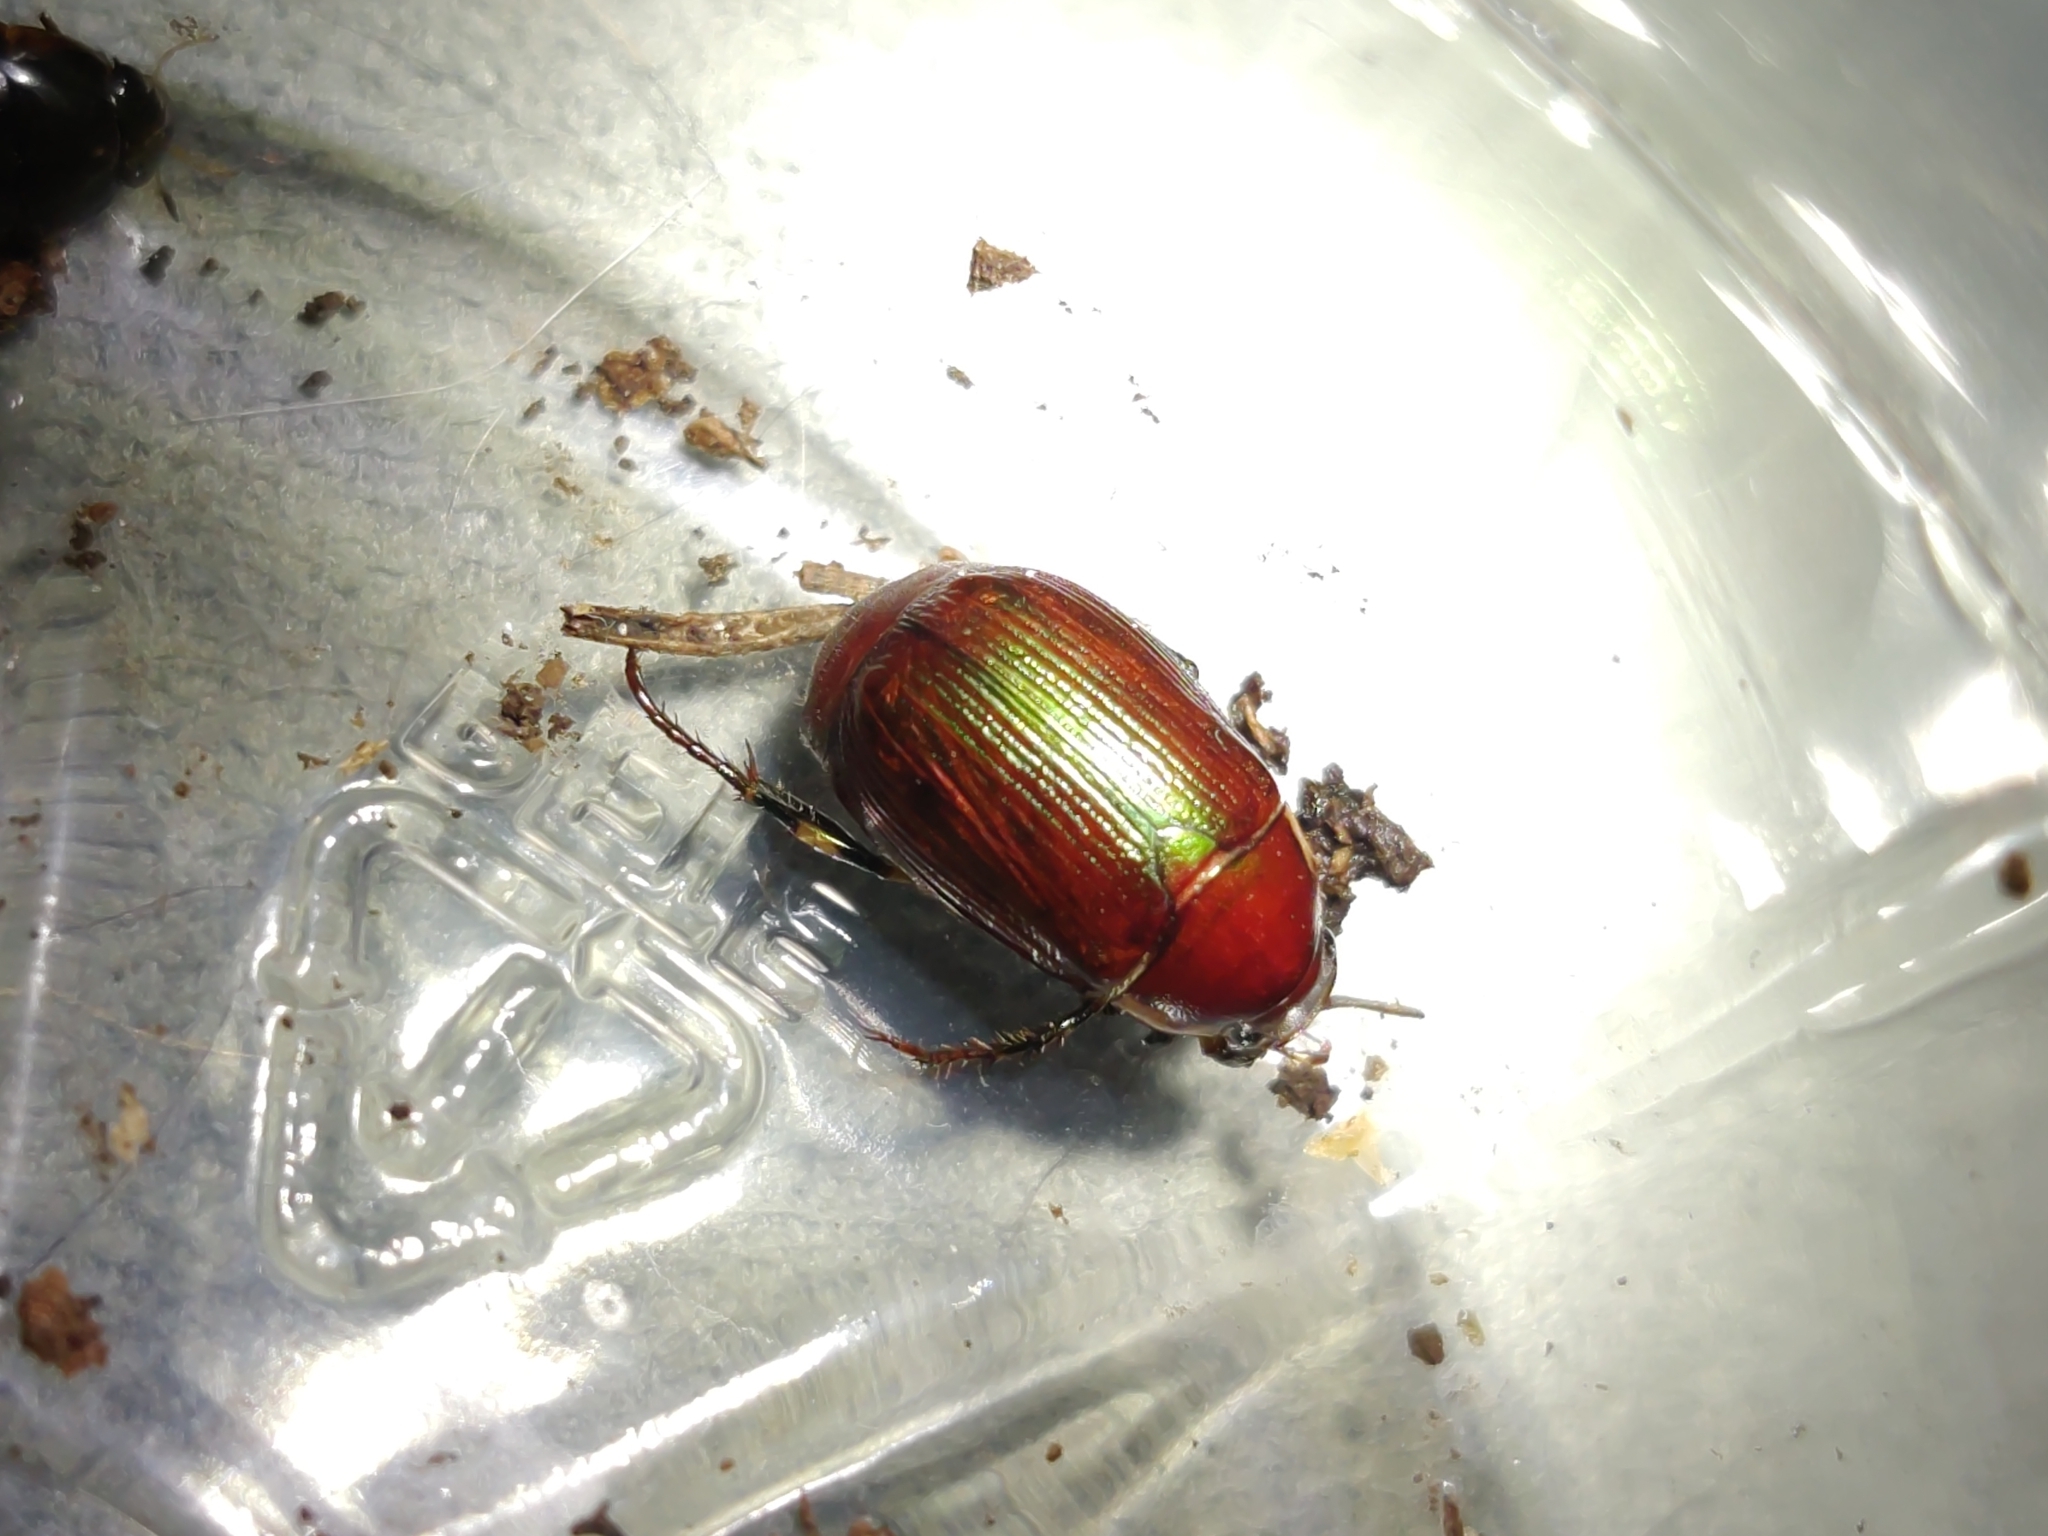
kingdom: Animalia
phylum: Arthropoda
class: Insecta
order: Coleoptera
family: Scarabaeidae
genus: Callistethus
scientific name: Callistethus marginatus
